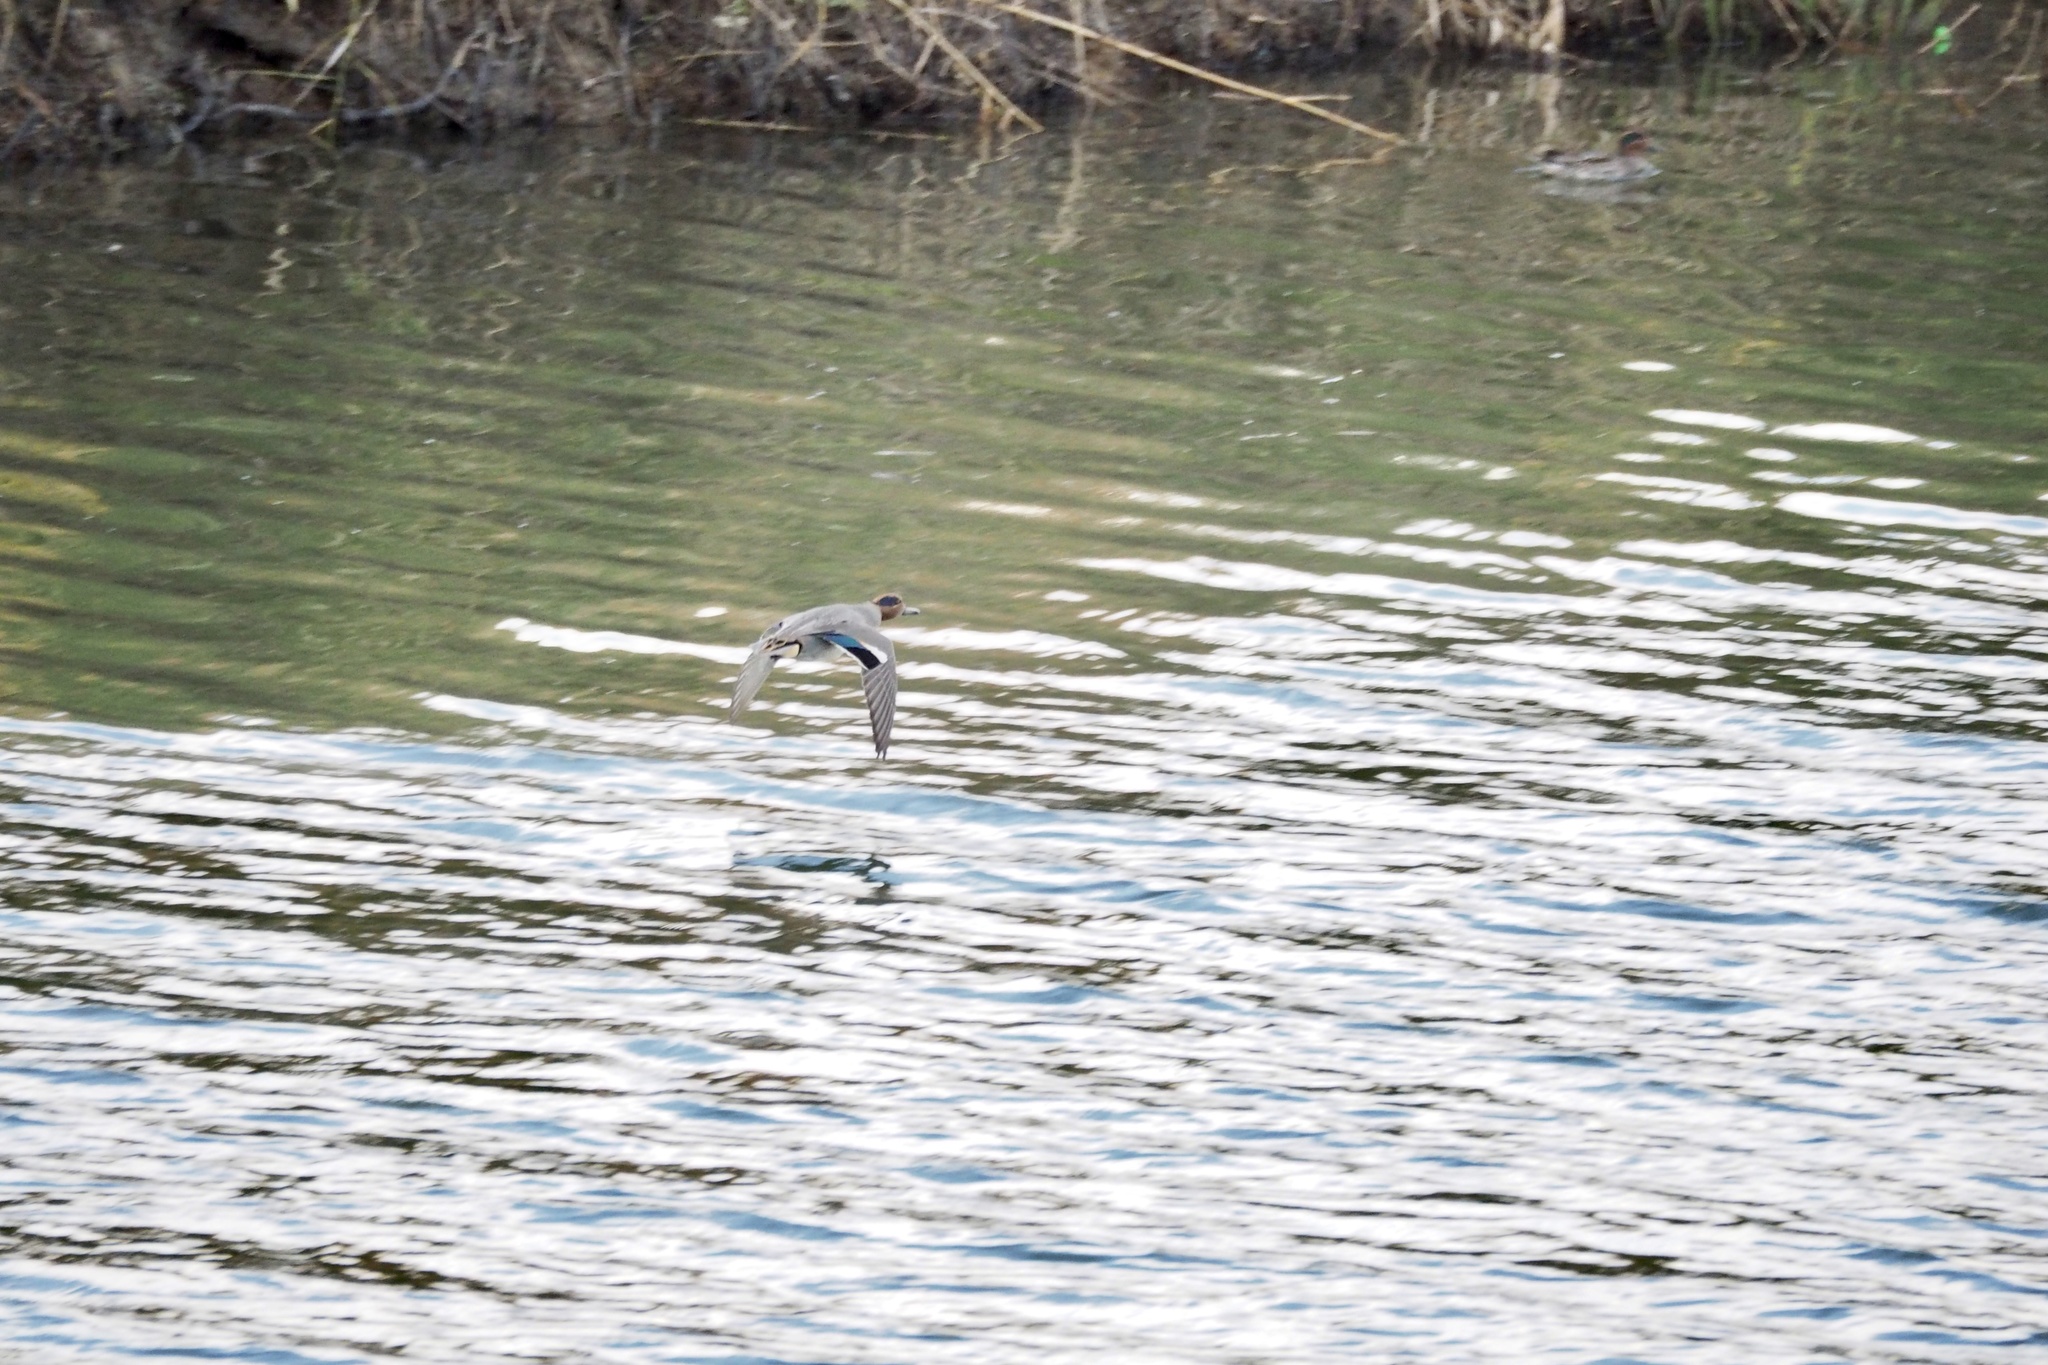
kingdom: Animalia
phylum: Chordata
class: Aves
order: Anseriformes
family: Anatidae
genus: Anas
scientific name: Anas crecca
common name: Eurasian teal
